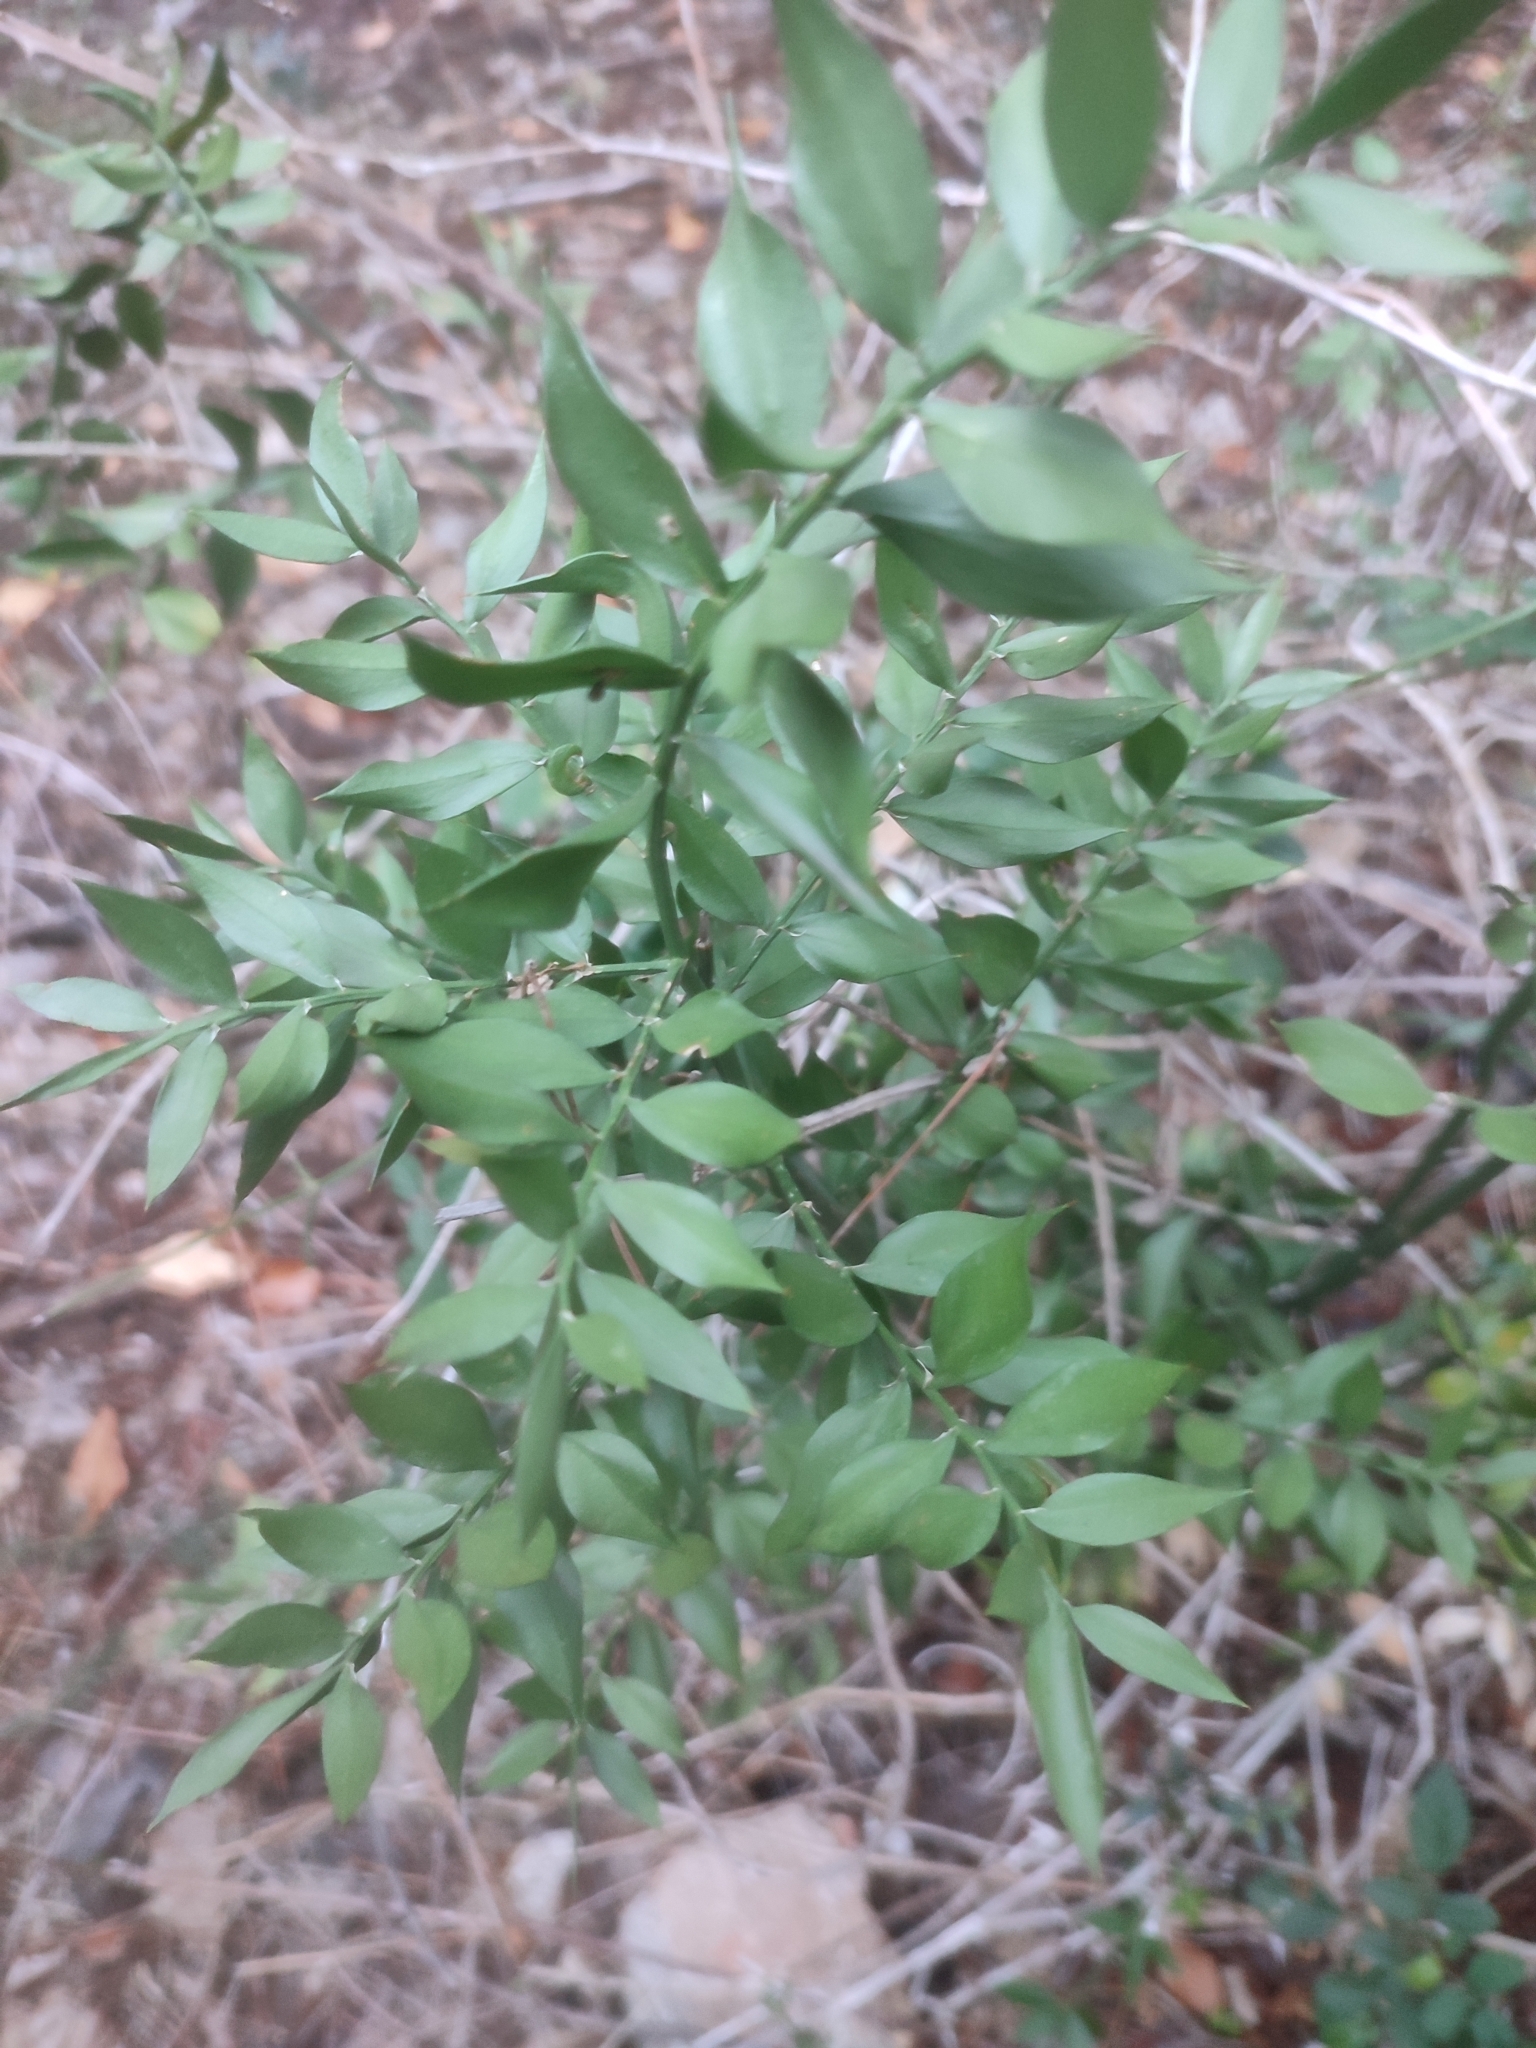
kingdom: Plantae
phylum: Tracheophyta
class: Liliopsida
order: Asparagales
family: Asparagaceae
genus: Ruscus
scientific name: Ruscus aculeatus
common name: Butcher's-broom
